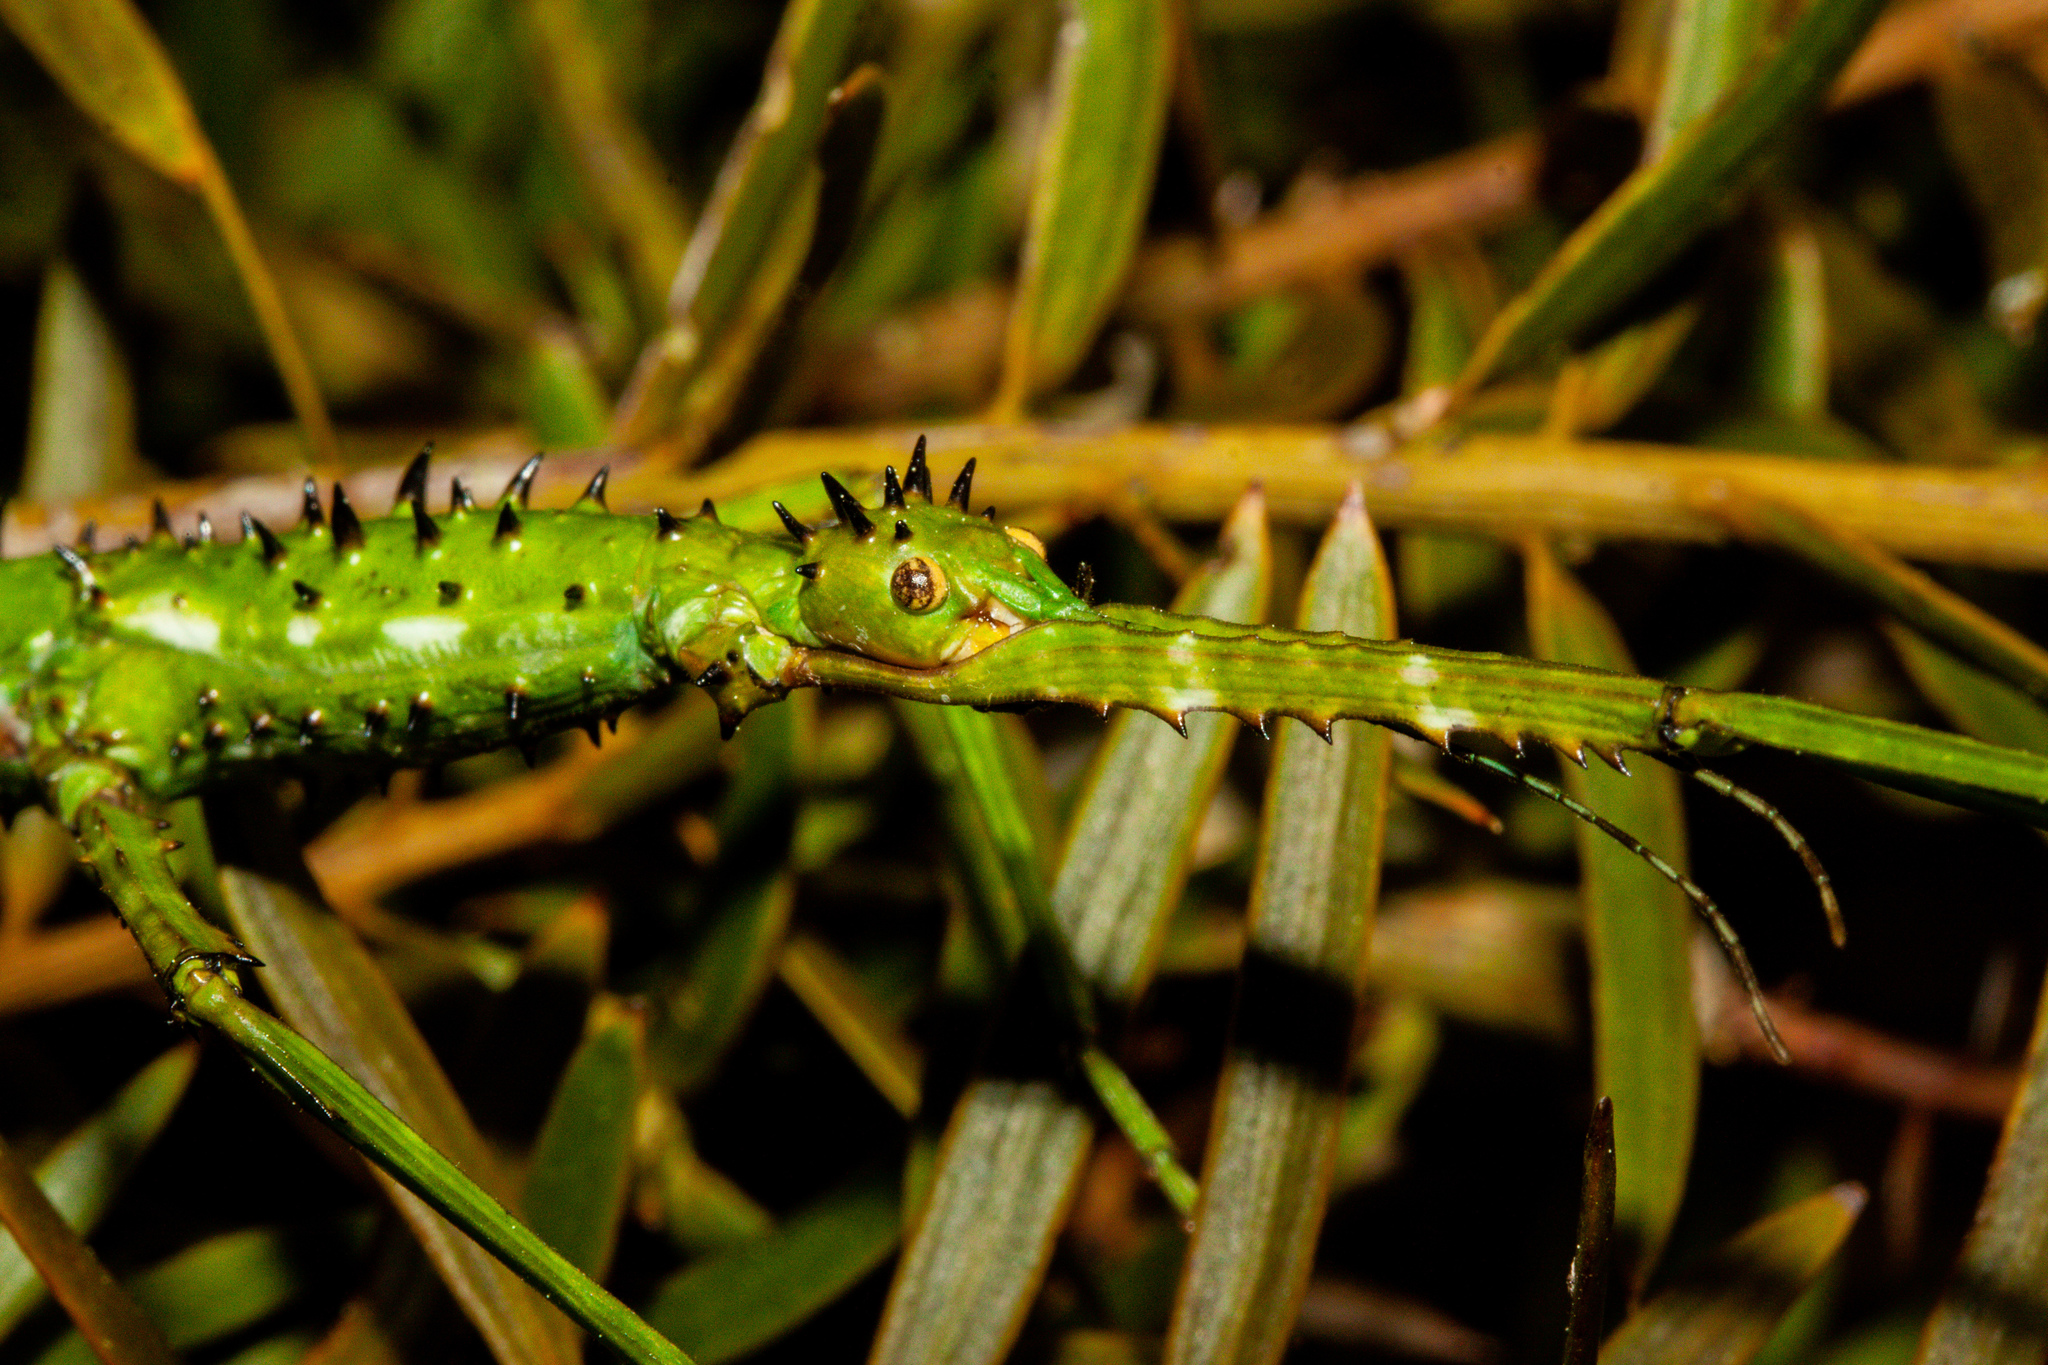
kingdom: Animalia
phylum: Arthropoda
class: Insecta
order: Phasmida
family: Phasmatidae
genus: Acanthoxyla
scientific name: Acanthoxyla prasina
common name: Black-spined stick insect
